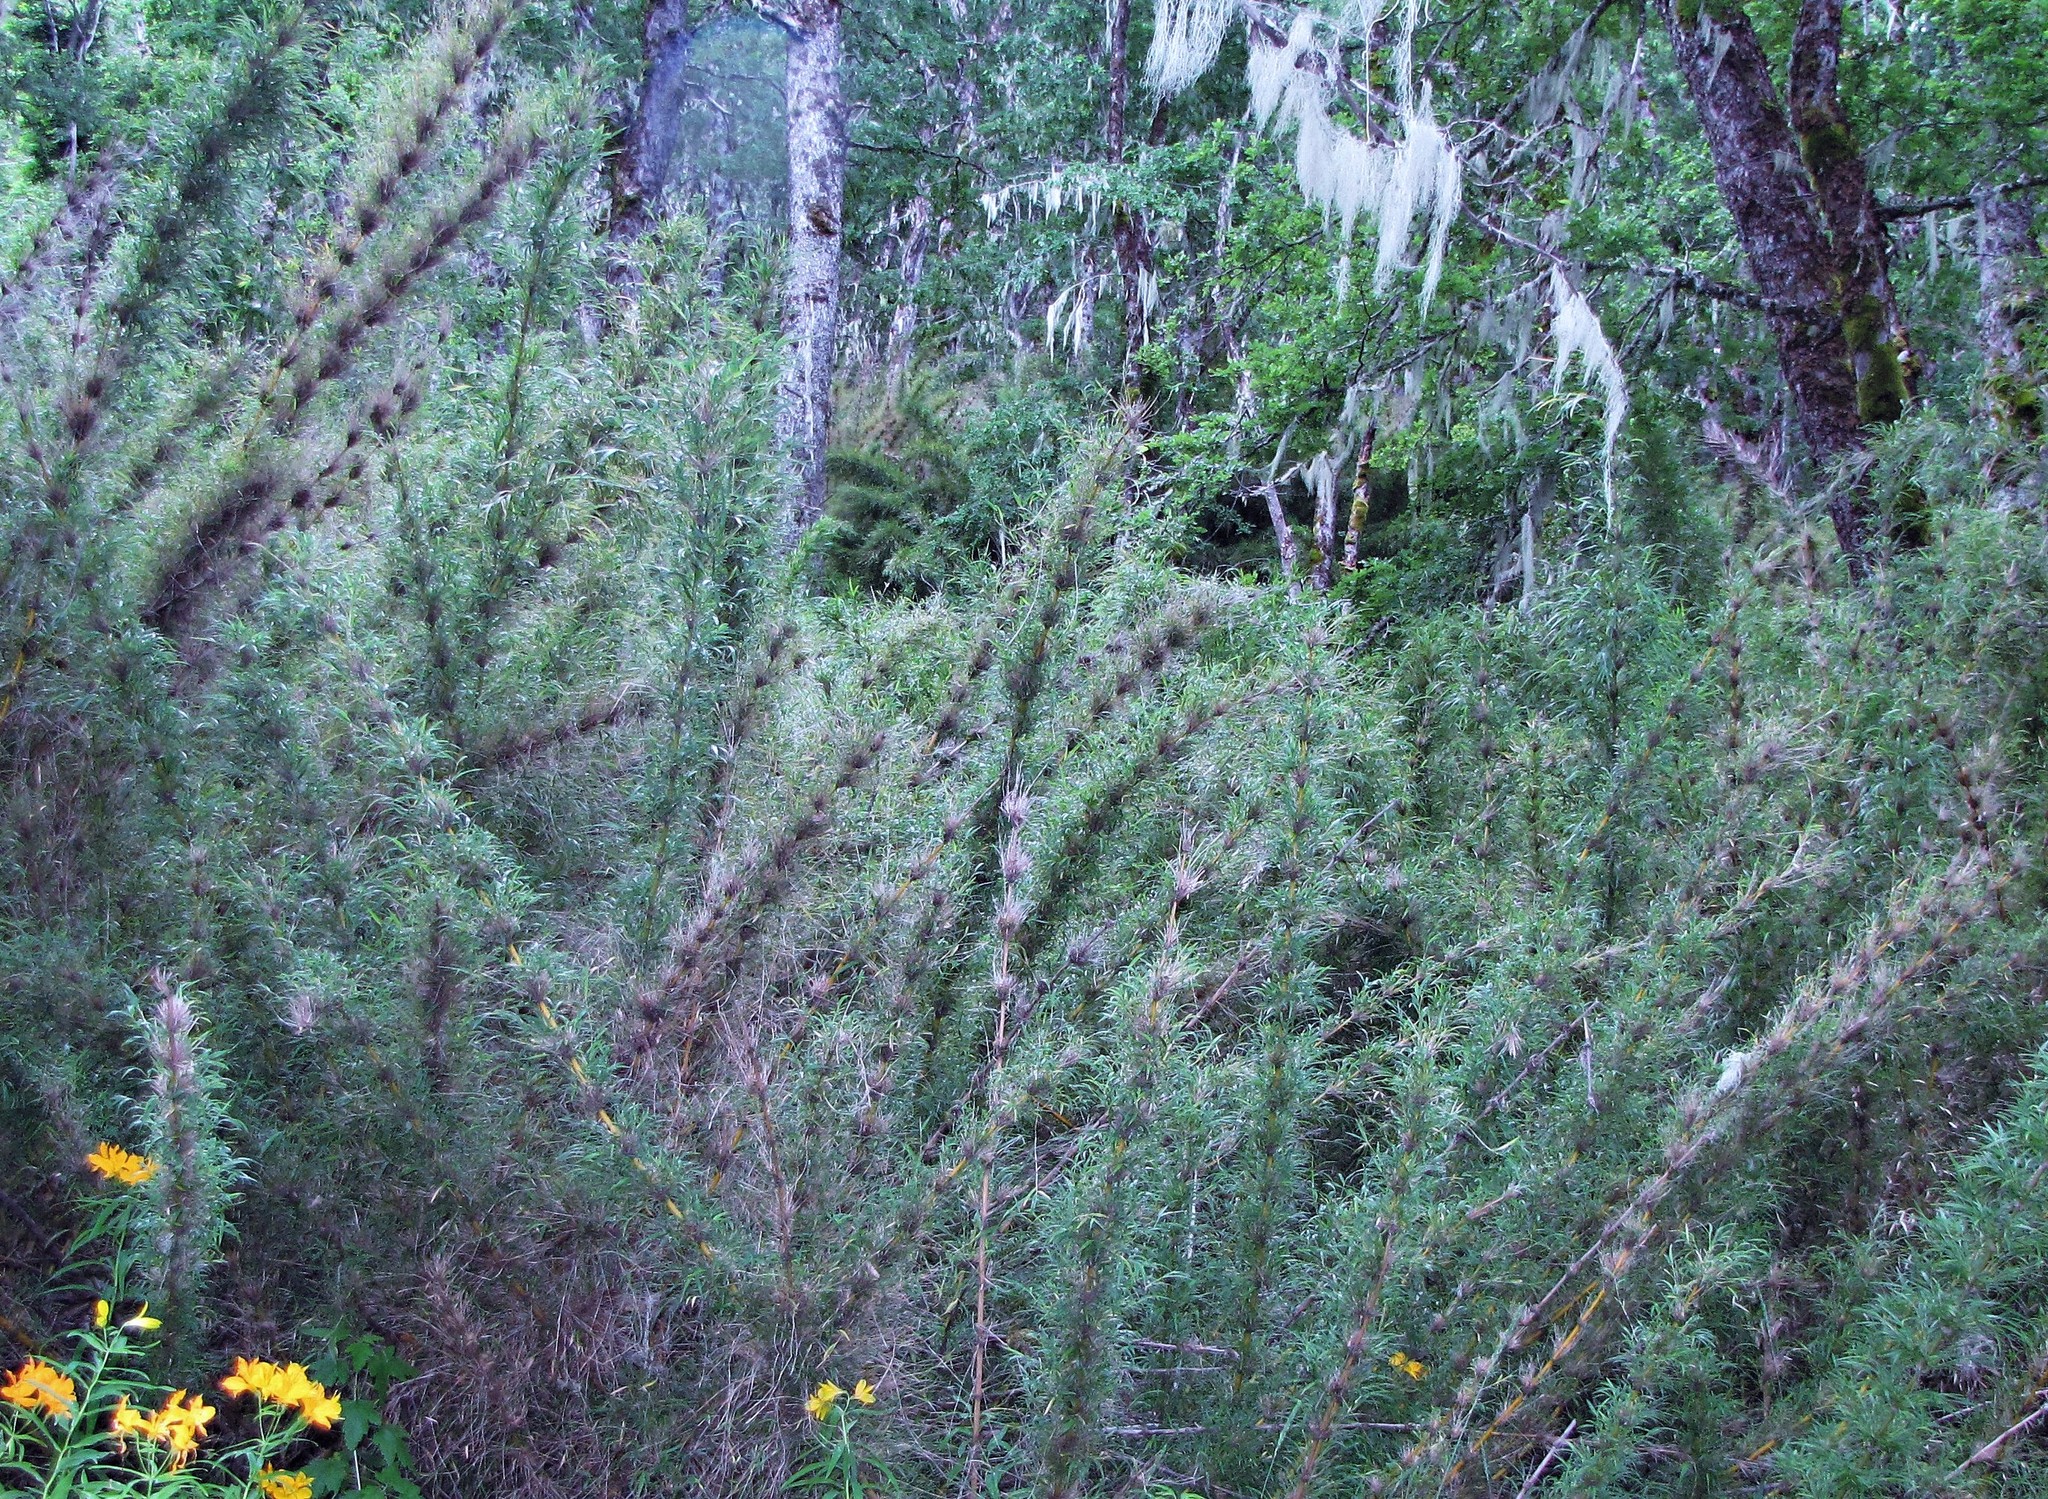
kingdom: Plantae
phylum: Tracheophyta
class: Liliopsida
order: Poales
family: Poaceae
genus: Chusquea
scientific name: Chusquea culeou
